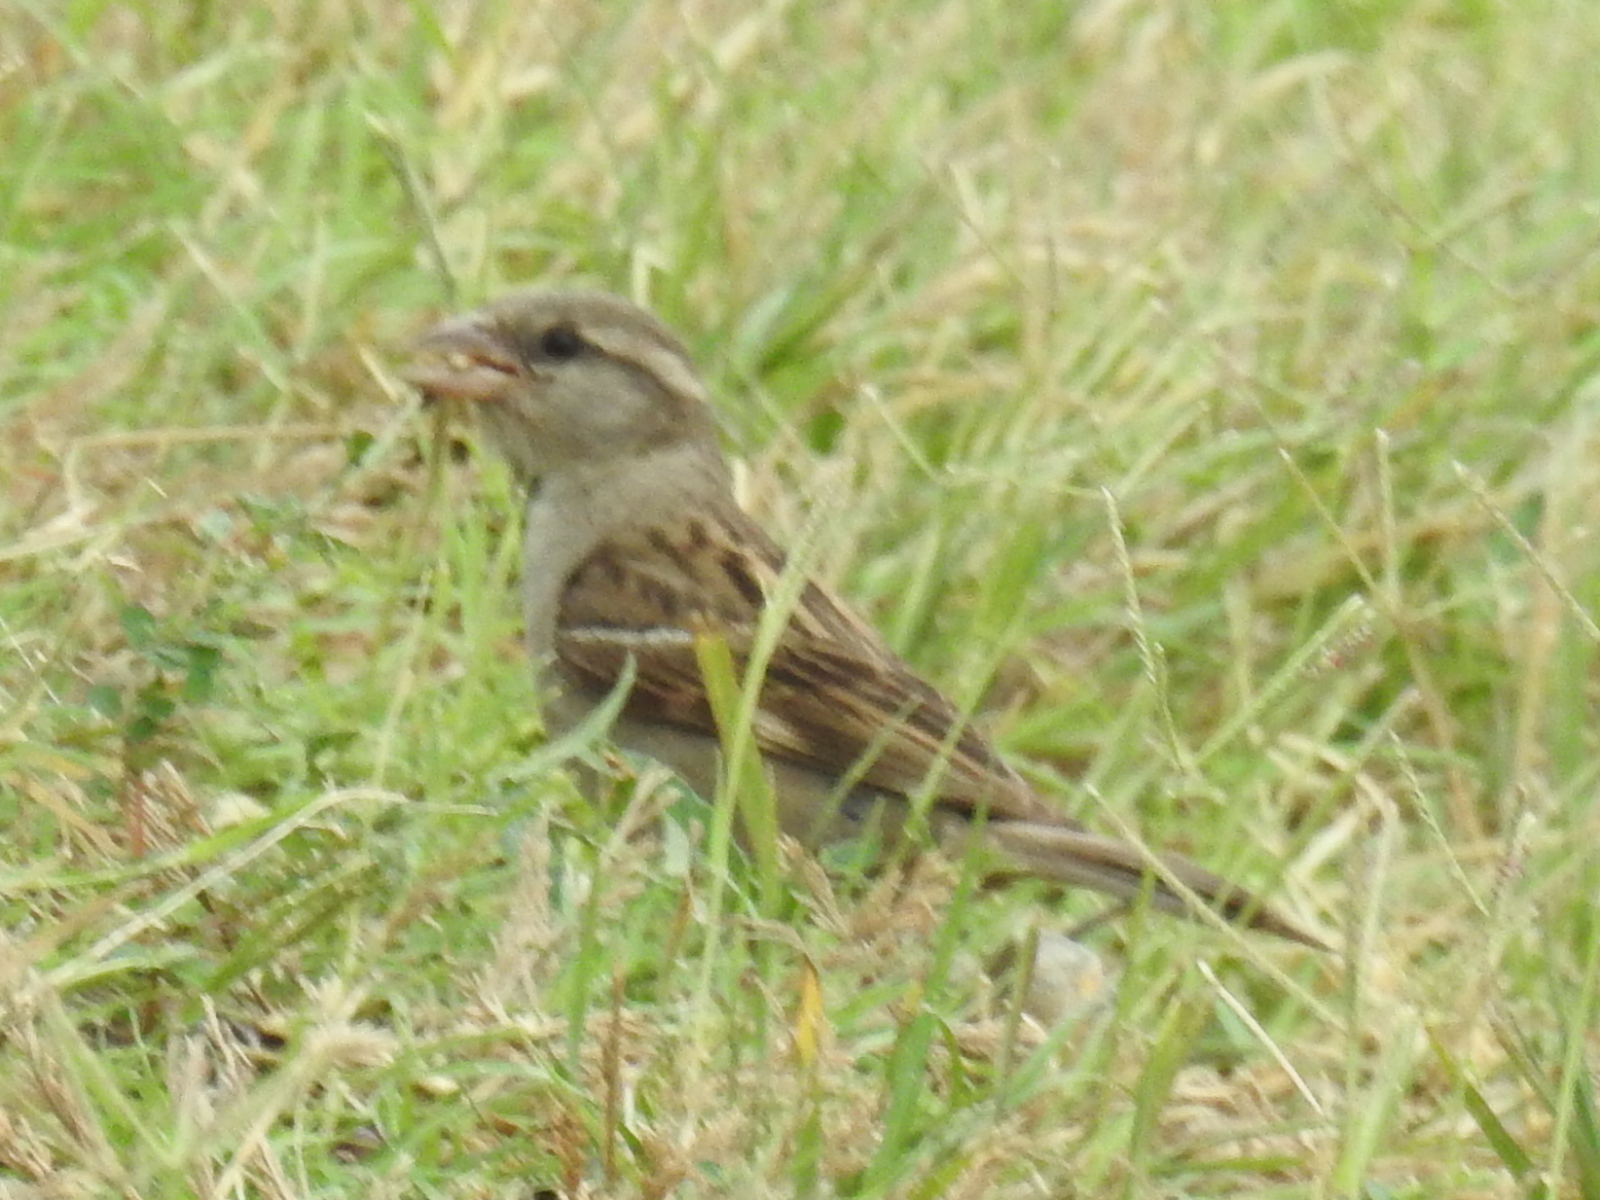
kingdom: Animalia
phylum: Chordata
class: Aves
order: Passeriformes
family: Passeridae
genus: Passer
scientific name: Passer domesticus
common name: House sparrow
